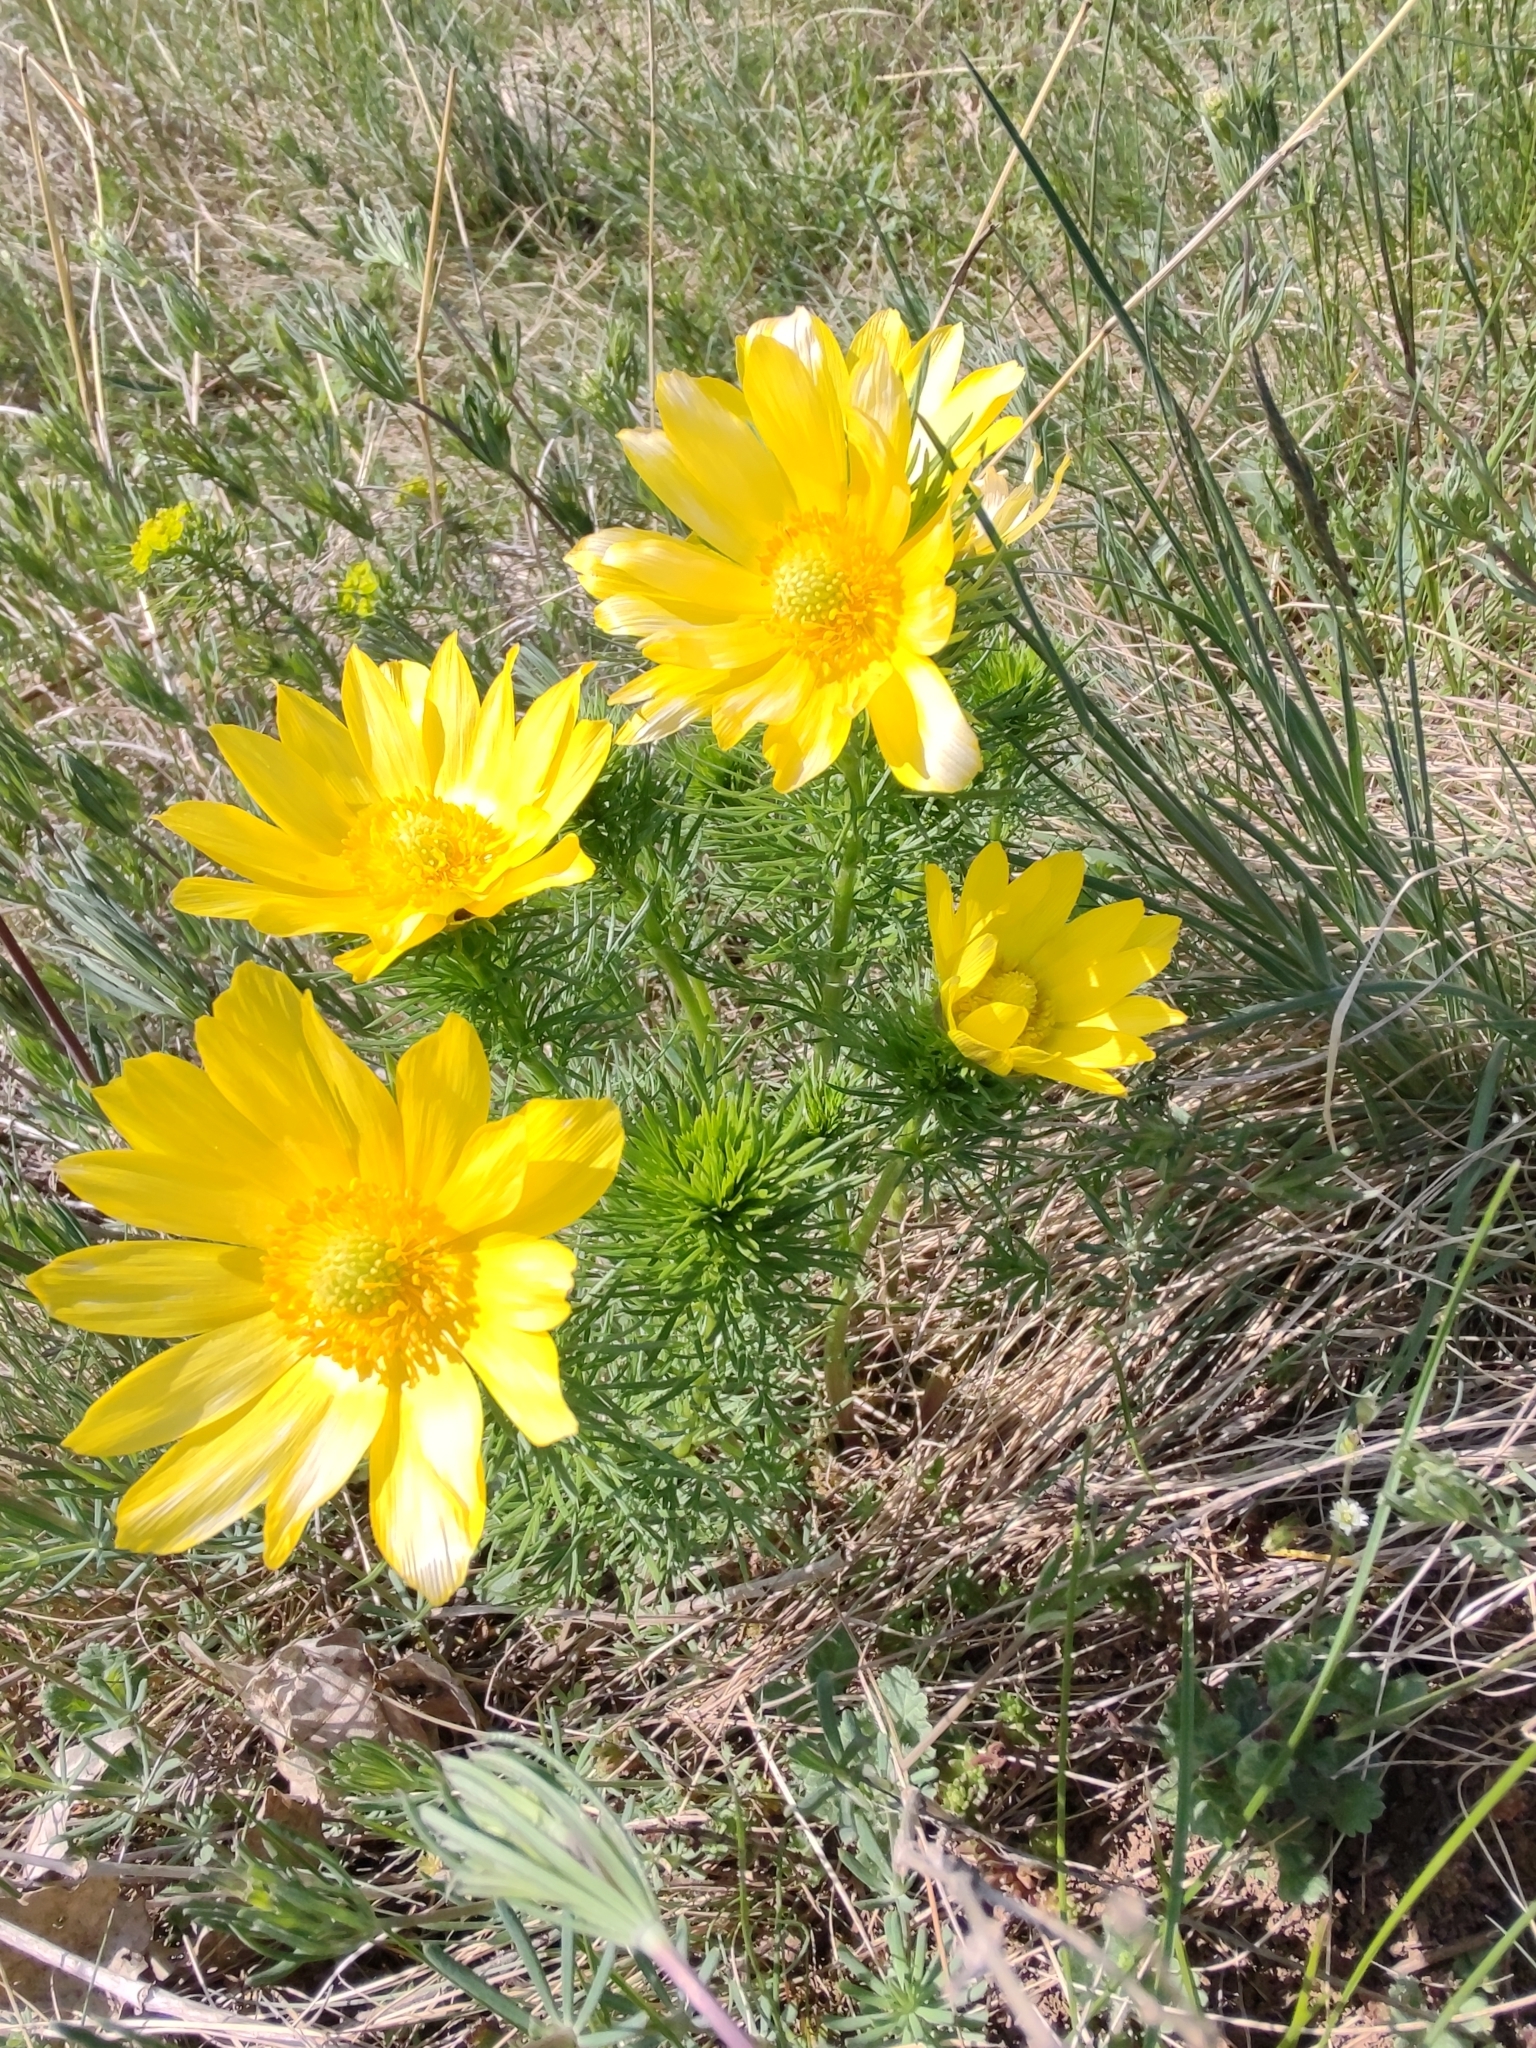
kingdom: Plantae
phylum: Tracheophyta
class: Magnoliopsida
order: Ranunculales
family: Ranunculaceae
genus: Adonis
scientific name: Adonis vernalis
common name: Yellow pheasants-eye
